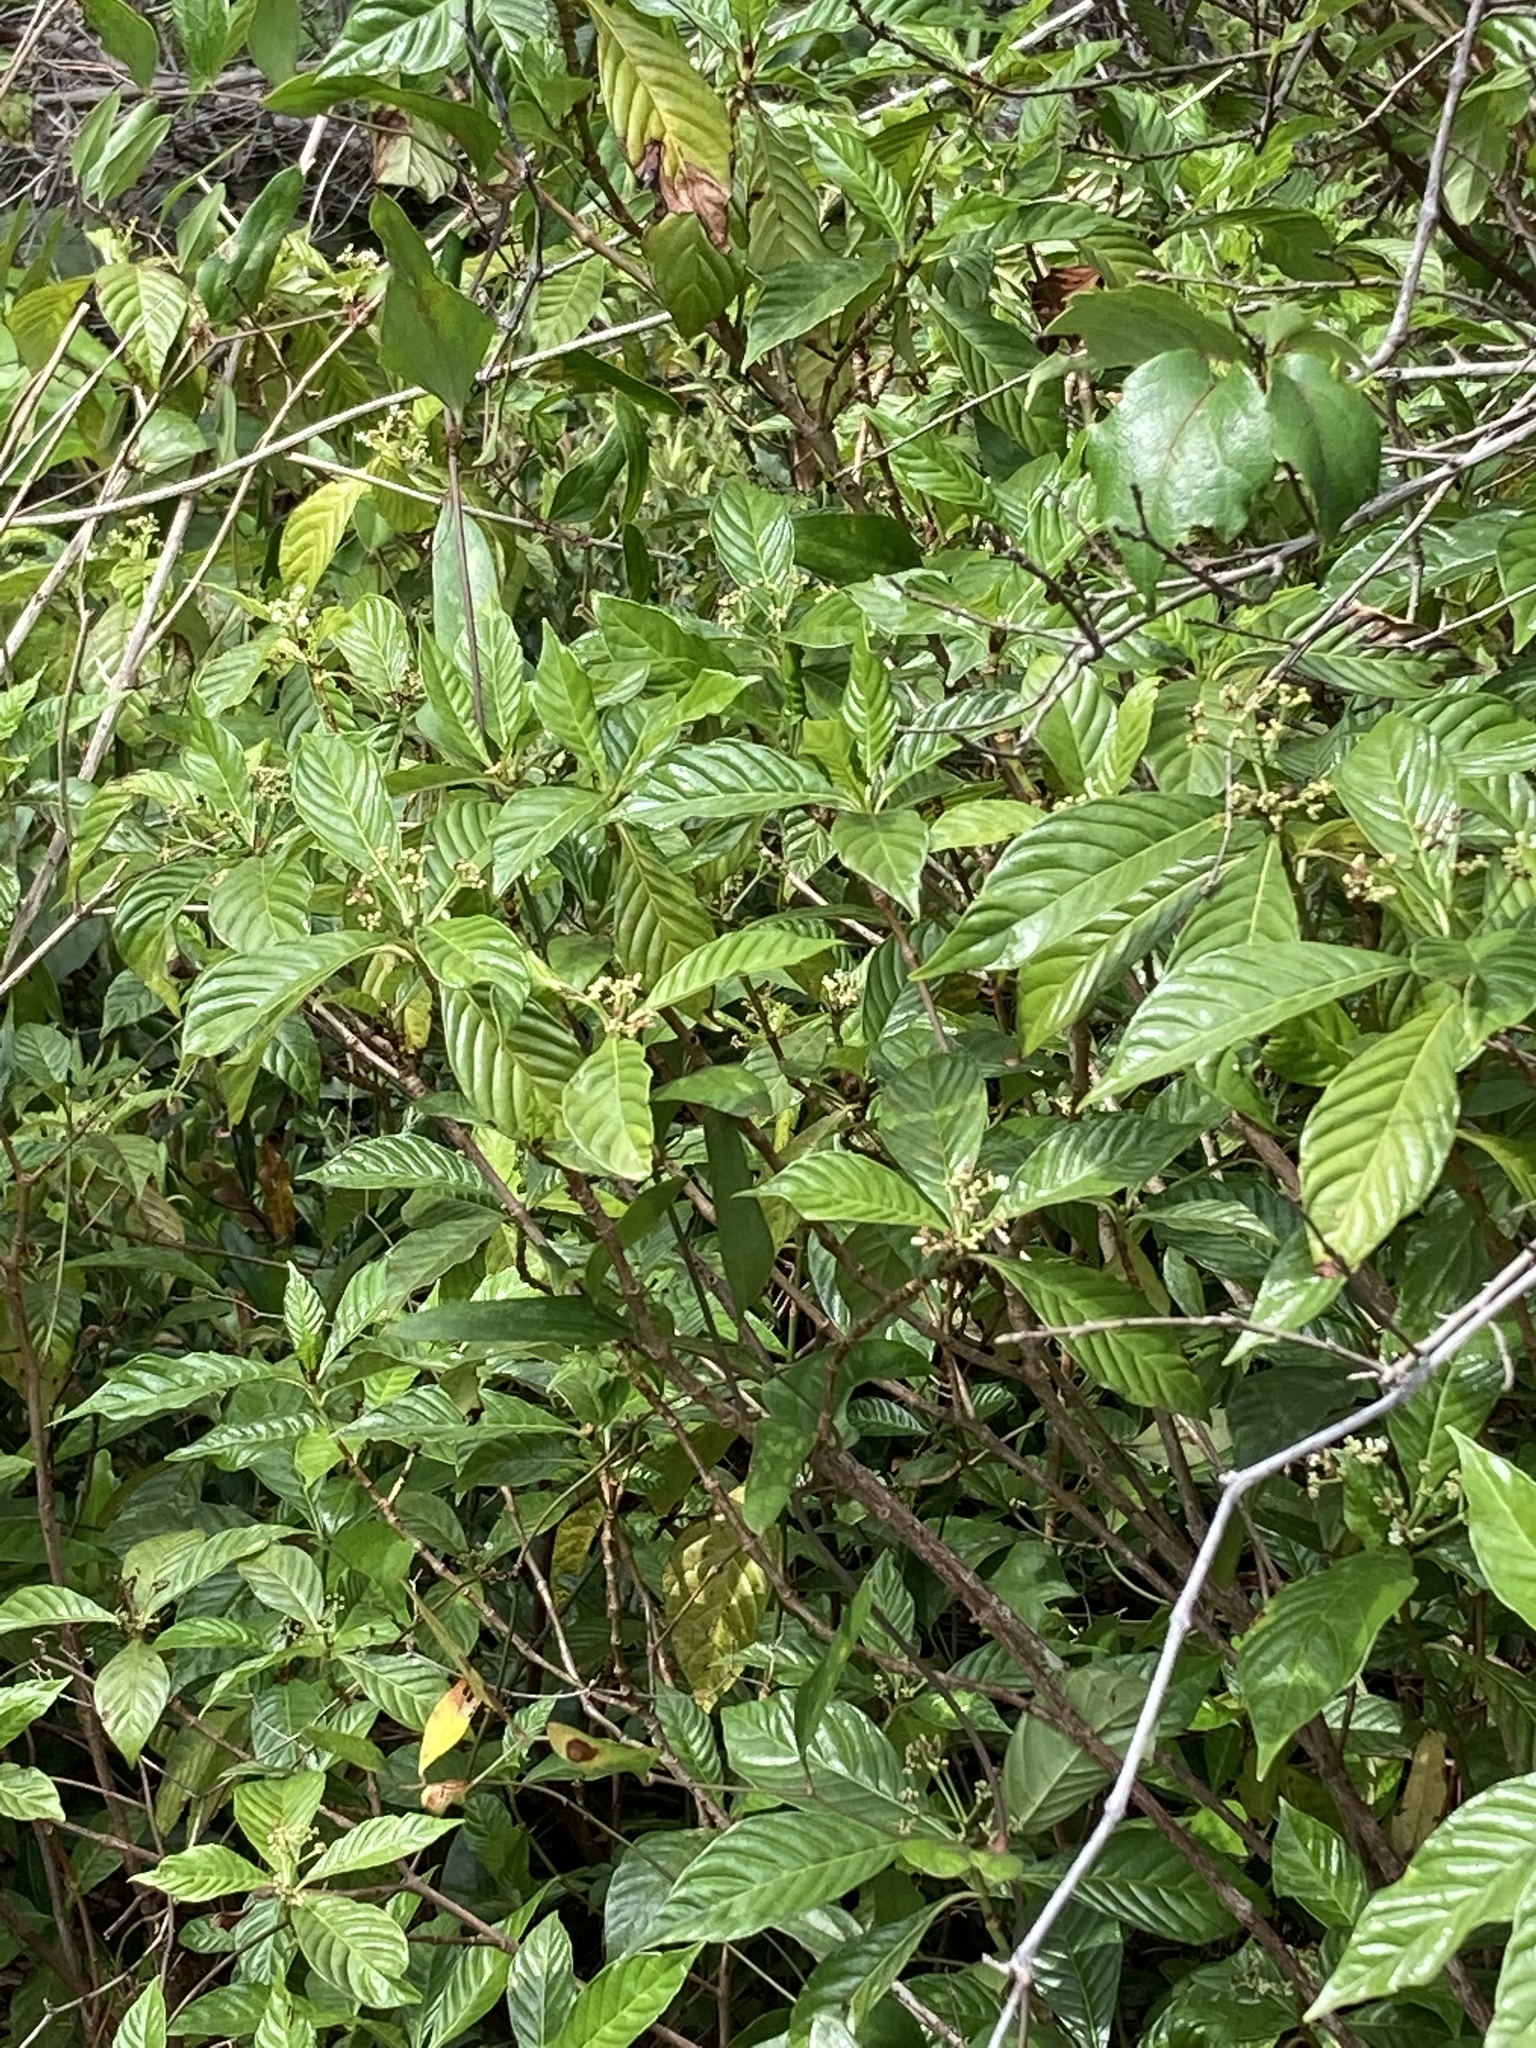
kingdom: Plantae
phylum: Tracheophyta
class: Magnoliopsida
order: Gentianales
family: Rubiaceae
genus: Psychotria
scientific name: Psychotria nervosa
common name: Bastard cankerberry
